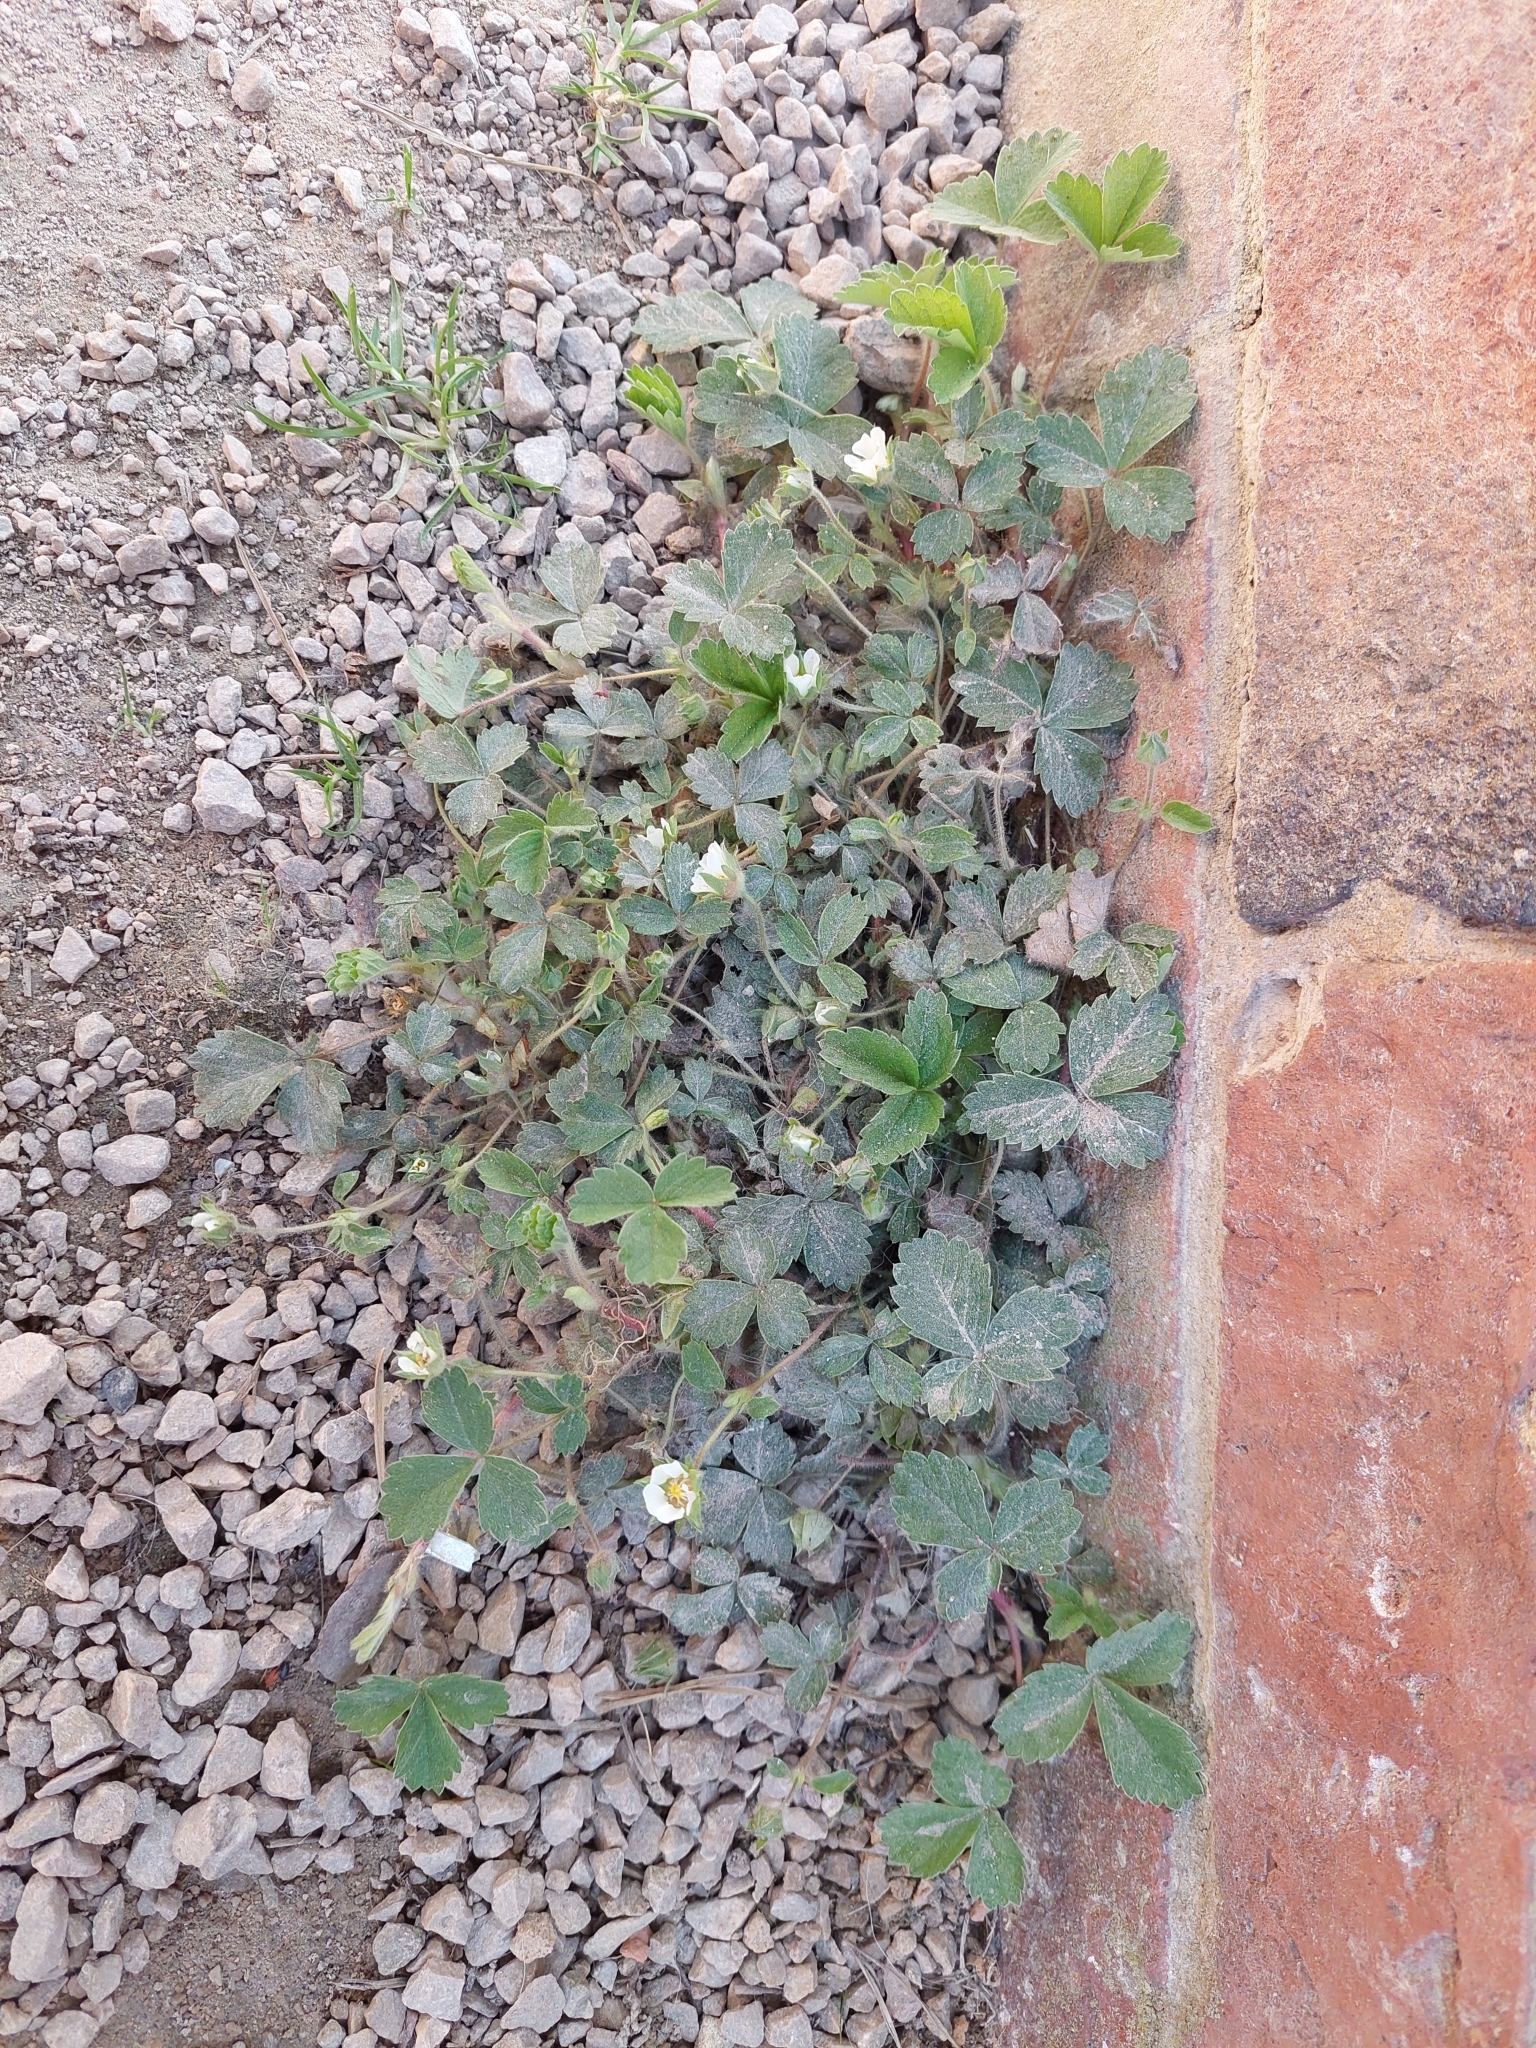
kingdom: Plantae
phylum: Tracheophyta
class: Magnoliopsida
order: Rosales
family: Rosaceae
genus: Potentilla
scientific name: Potentilla sterilis
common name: Barren strawberry
